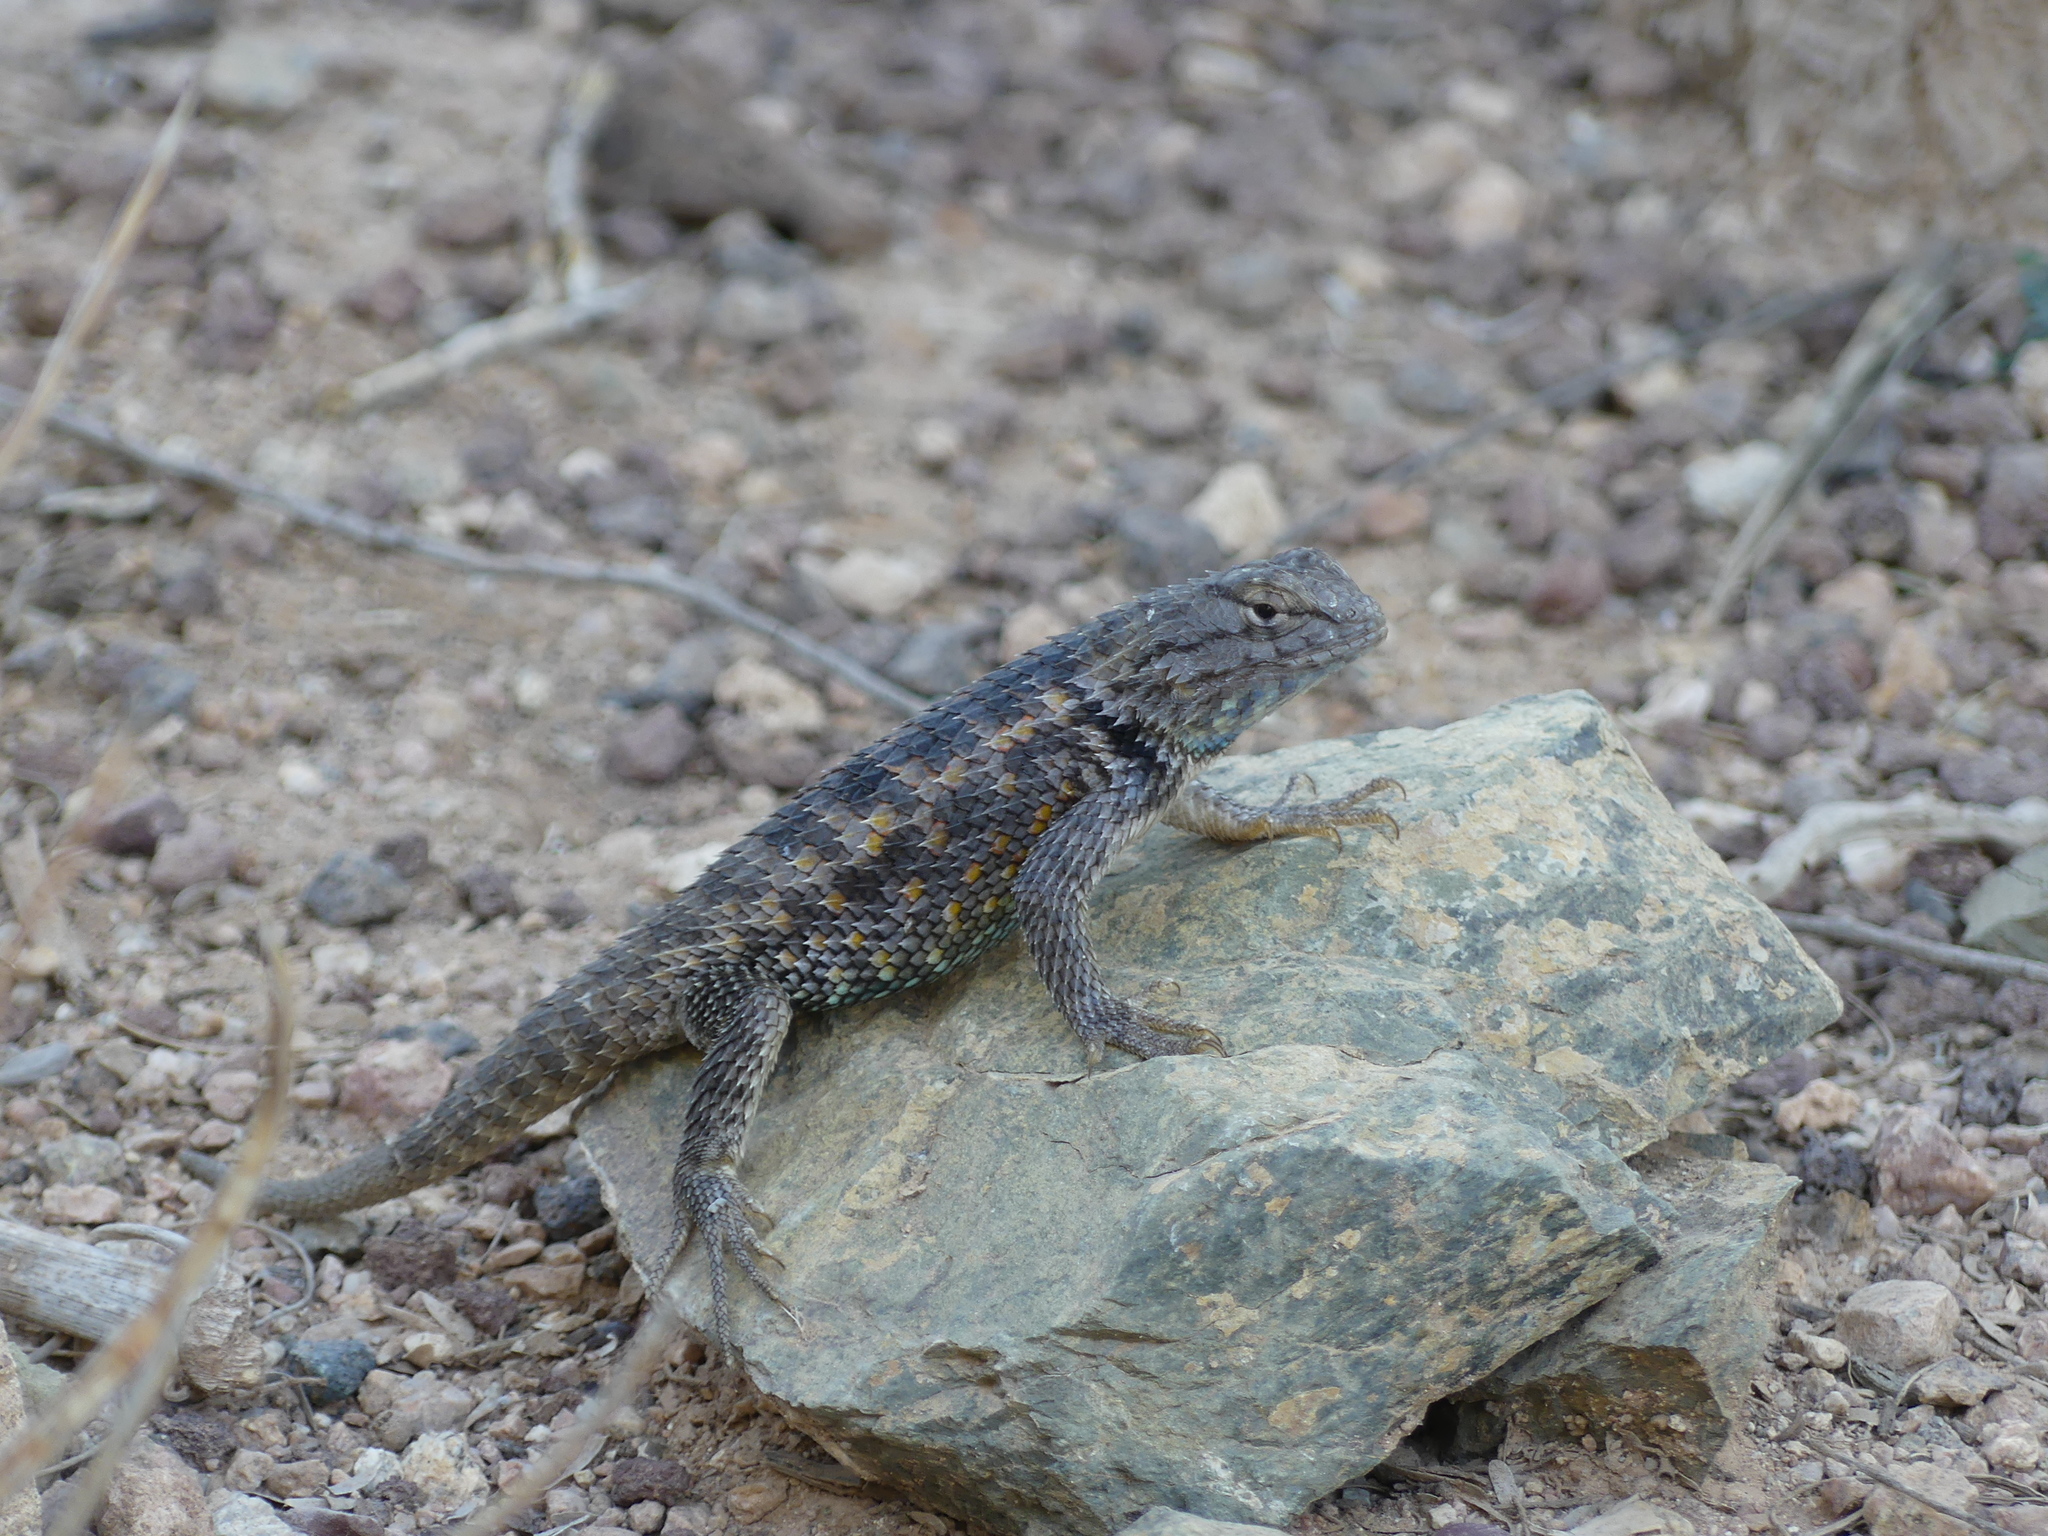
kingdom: Animalia
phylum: Chordata
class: Squamata
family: Phrynosomatidae
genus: Sceloporus
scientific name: Sceloporus magister
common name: Desert spiny lizard
